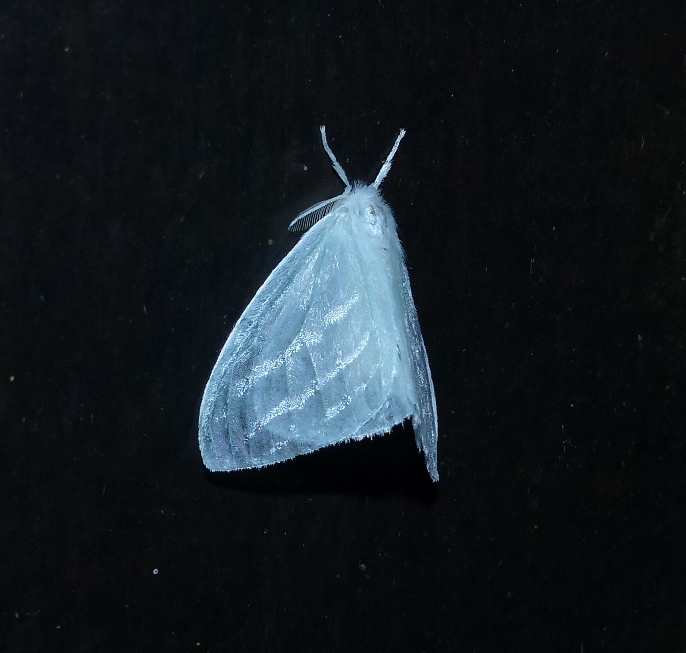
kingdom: Animalia
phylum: Arthropoda
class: Insecta
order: Lepidoptera
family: Erebidae
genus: Caviria
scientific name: Caviria regina
